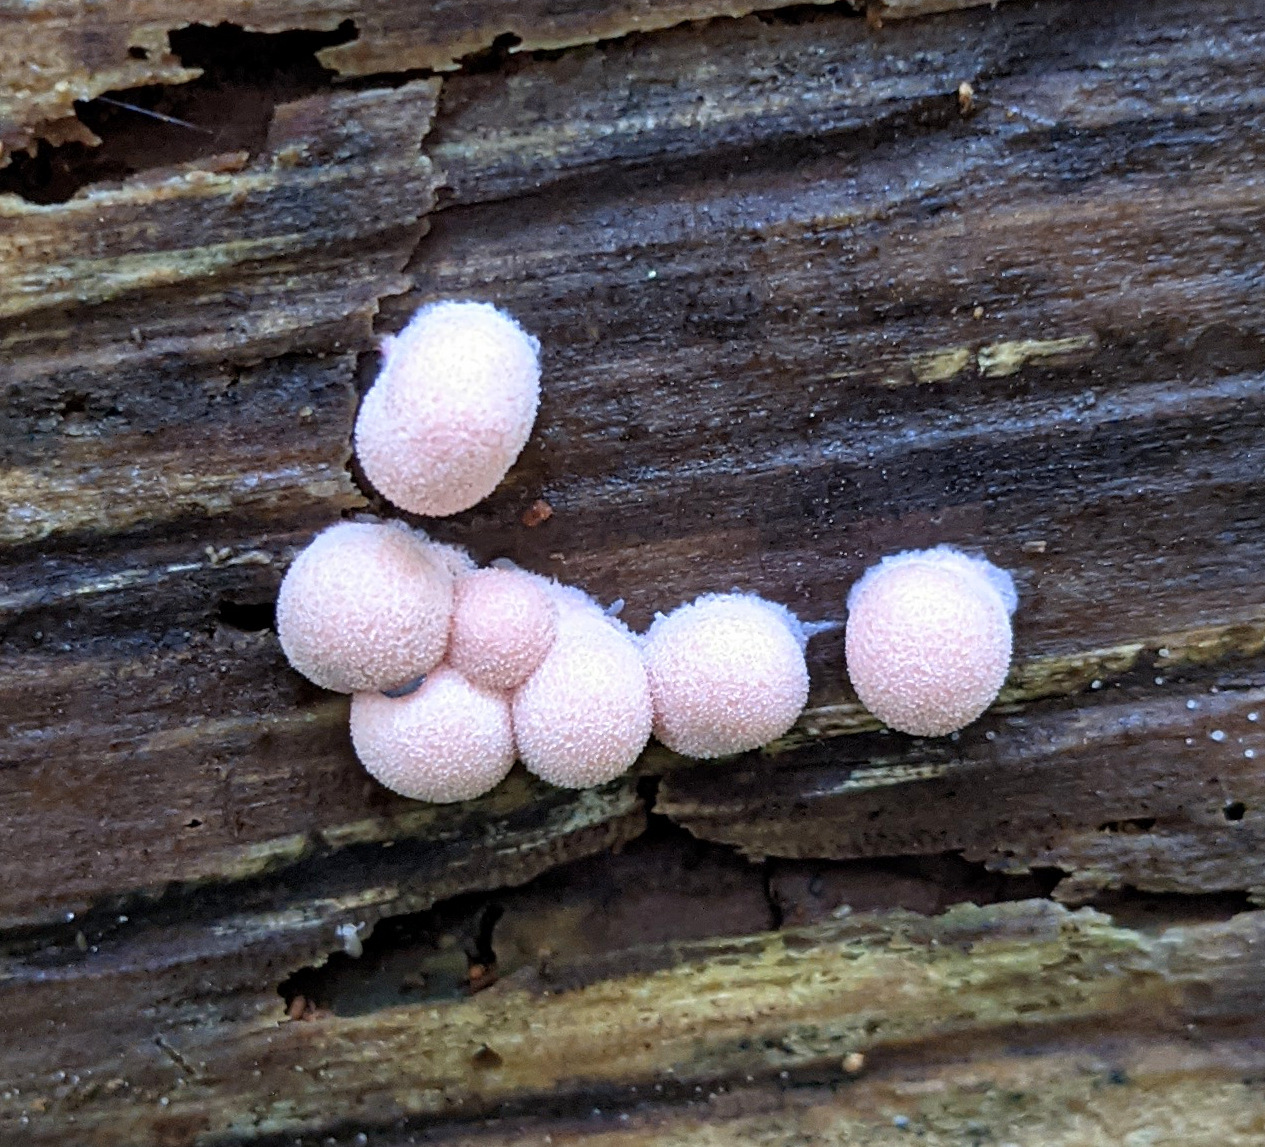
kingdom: Protozoa
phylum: Mycetozoa
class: Myxomycetes
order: Cribrariales
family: Tubiferaceae
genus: Lycogala
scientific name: Lycogala epidendrum
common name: Wolf's milk
